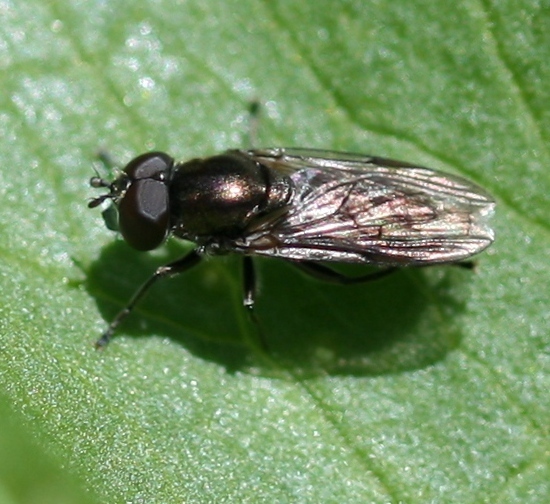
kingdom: Animalia
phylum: Arthropoda
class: Insecta
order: Diptera
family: Syrphidae
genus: Orthonevra
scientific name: Orthonevra brevicornis
